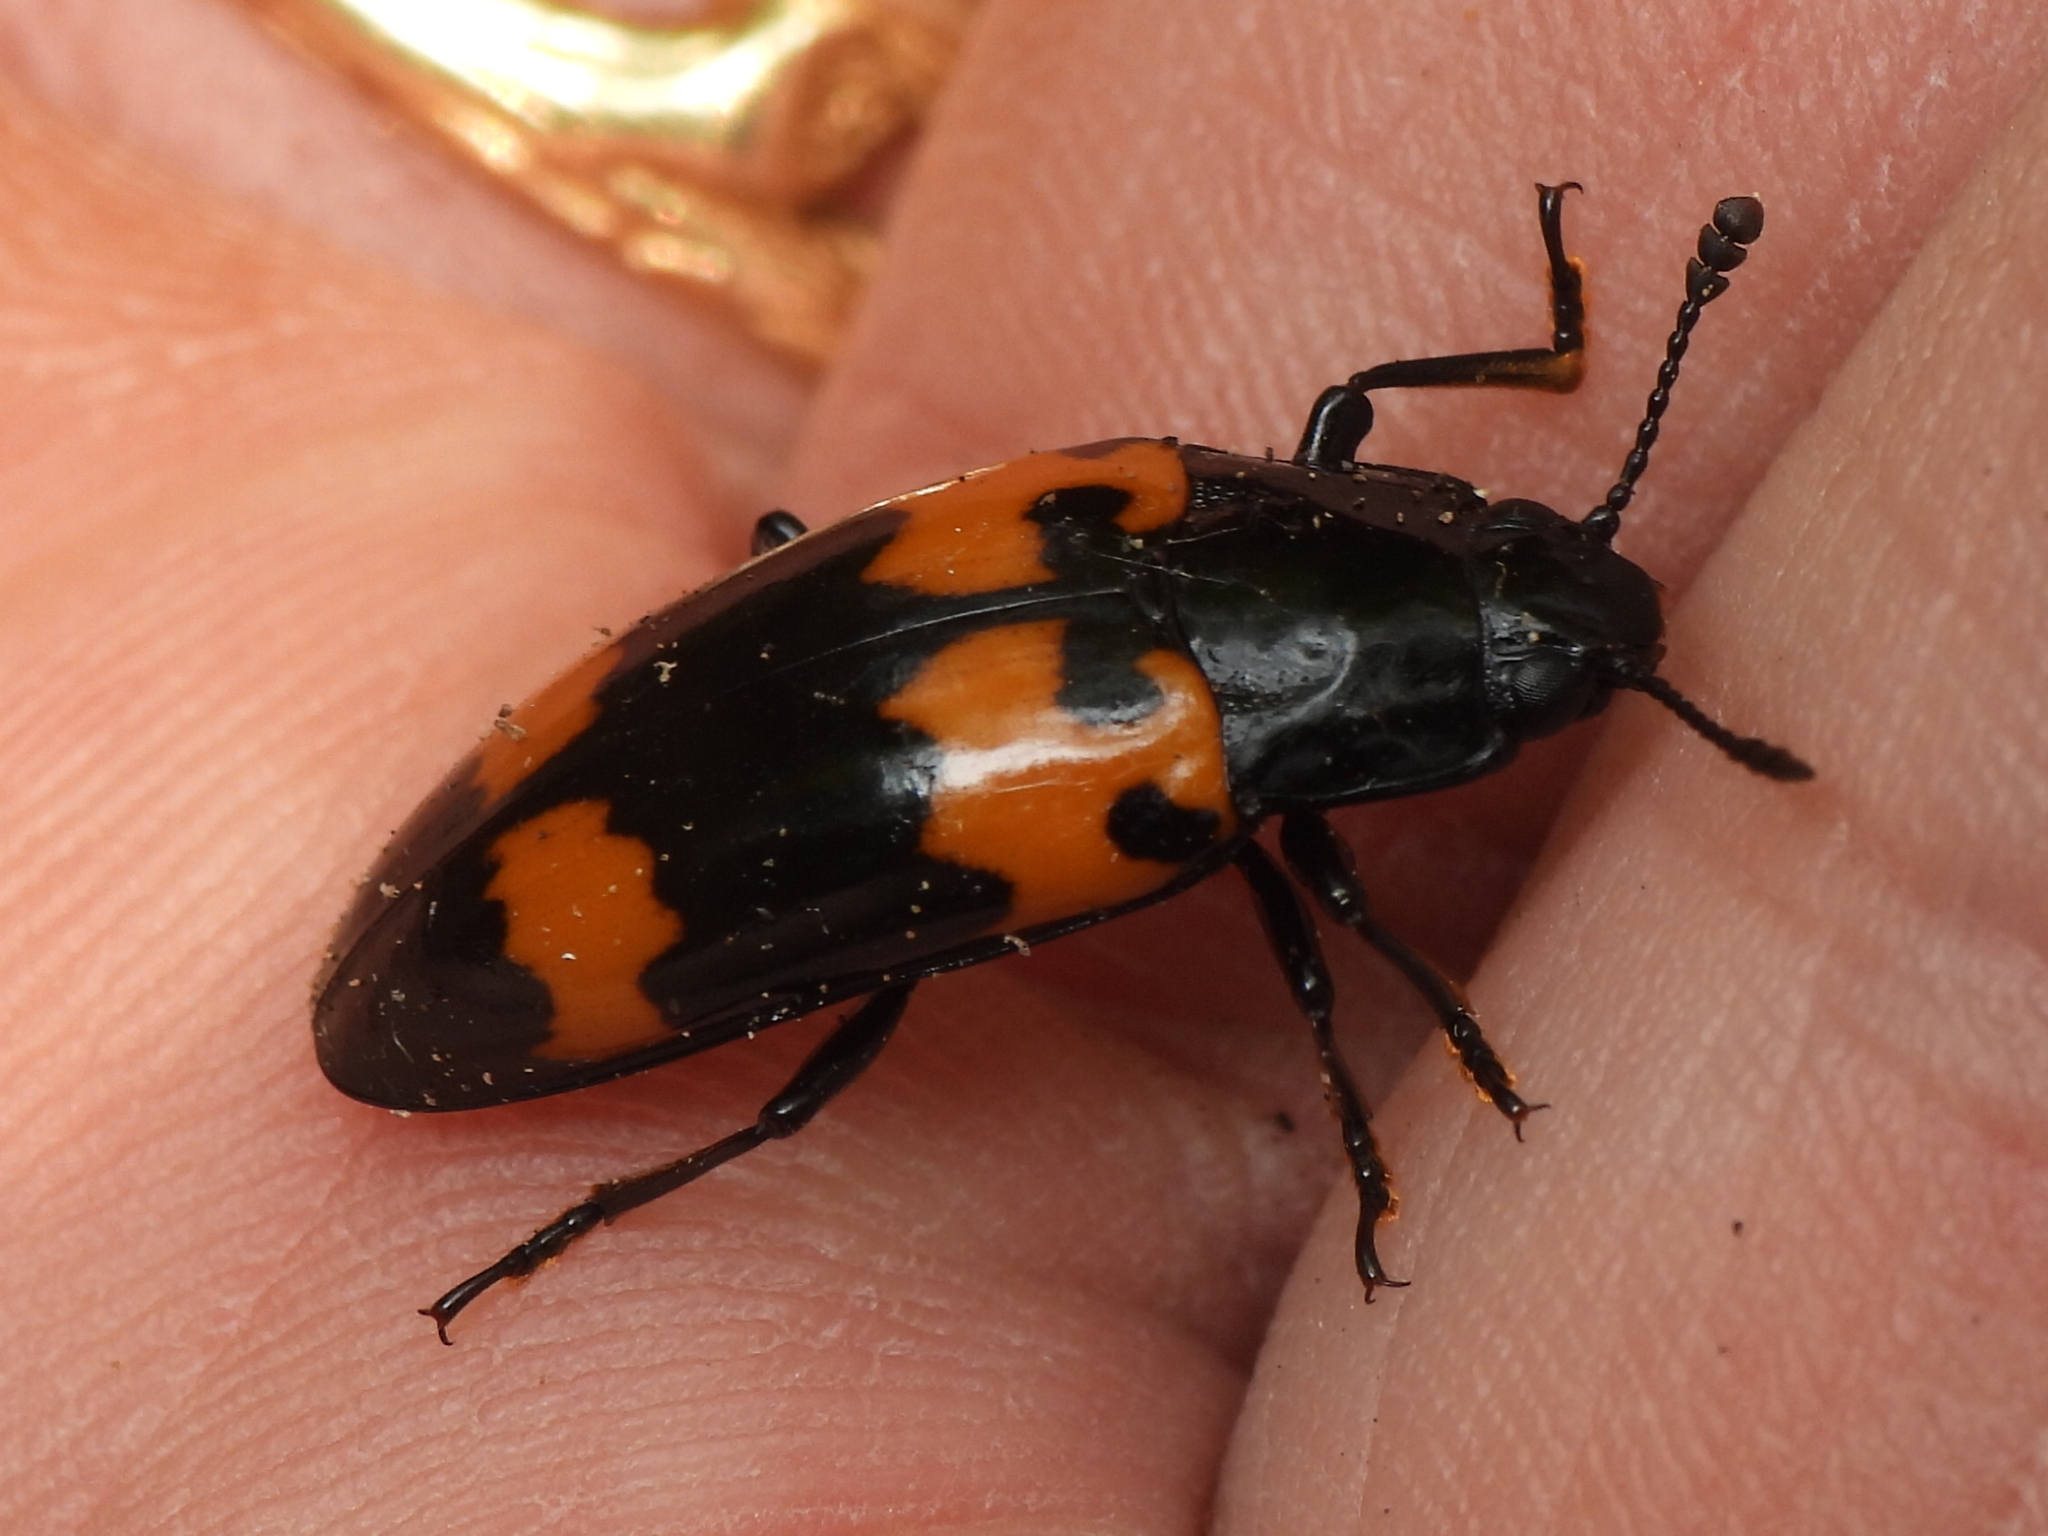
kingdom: Animalia
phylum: Arthropoda
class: Insecta
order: Coleoptera
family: Erotylidae
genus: Megalodacne
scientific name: Megalodacne heros
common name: Pleasing fungus beetle
